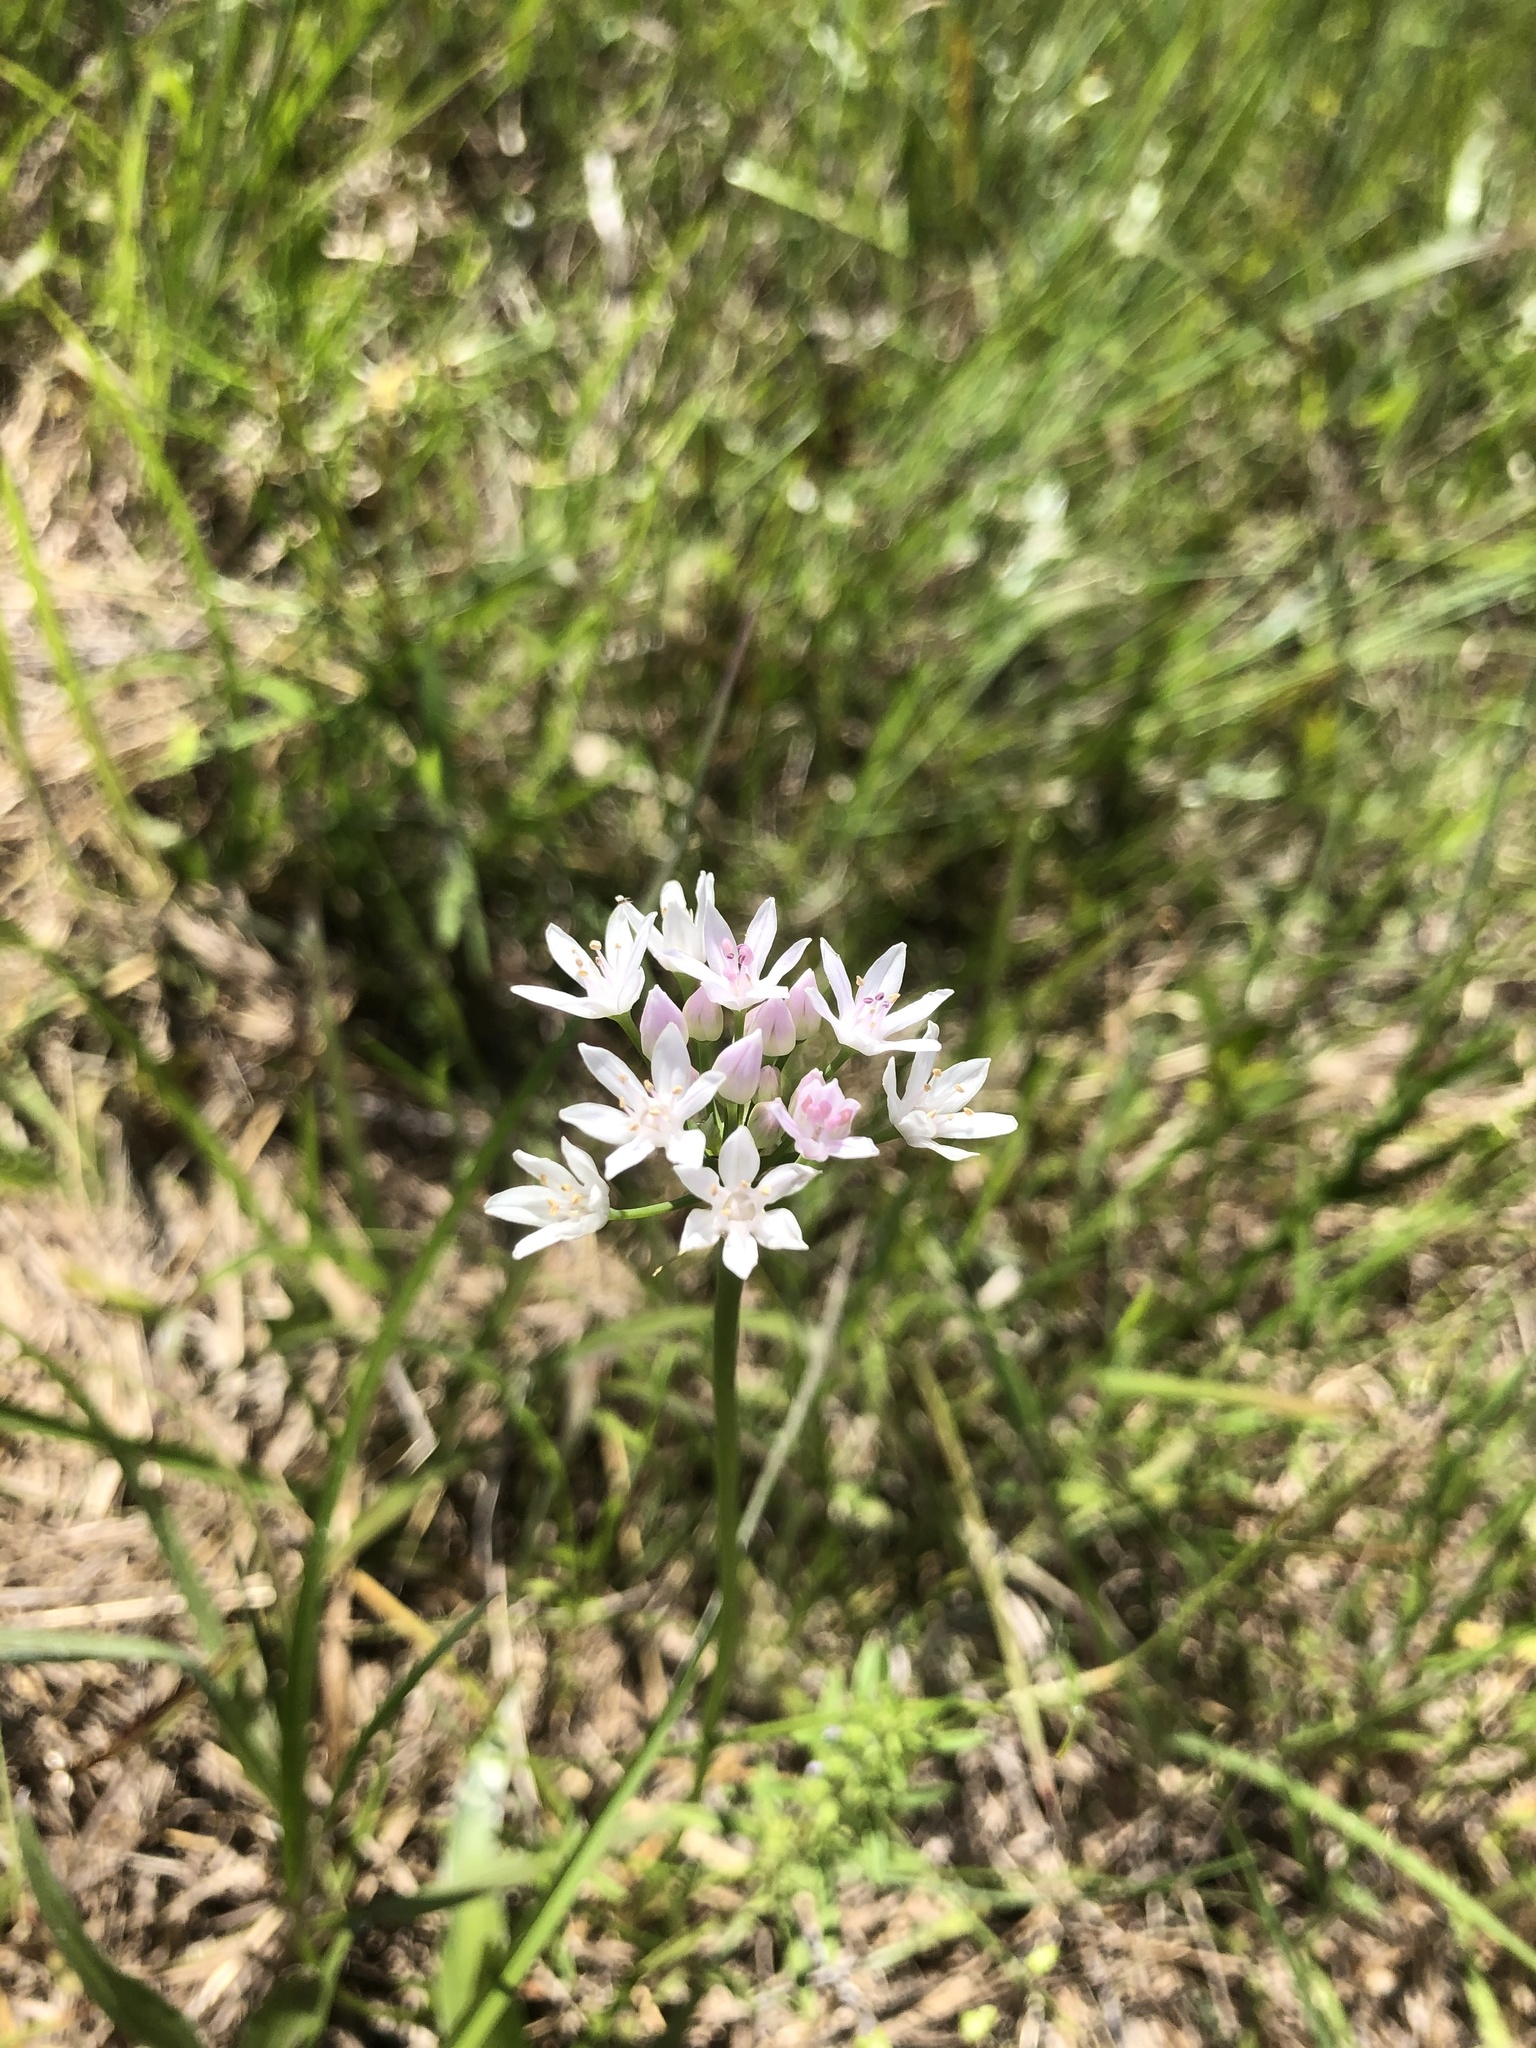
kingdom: Plantae
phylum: Tracheophyta
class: Liliopsida
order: Asparagales
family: Amaryllidaceae
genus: Allium
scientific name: Allium canadense
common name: Meadow garlic
